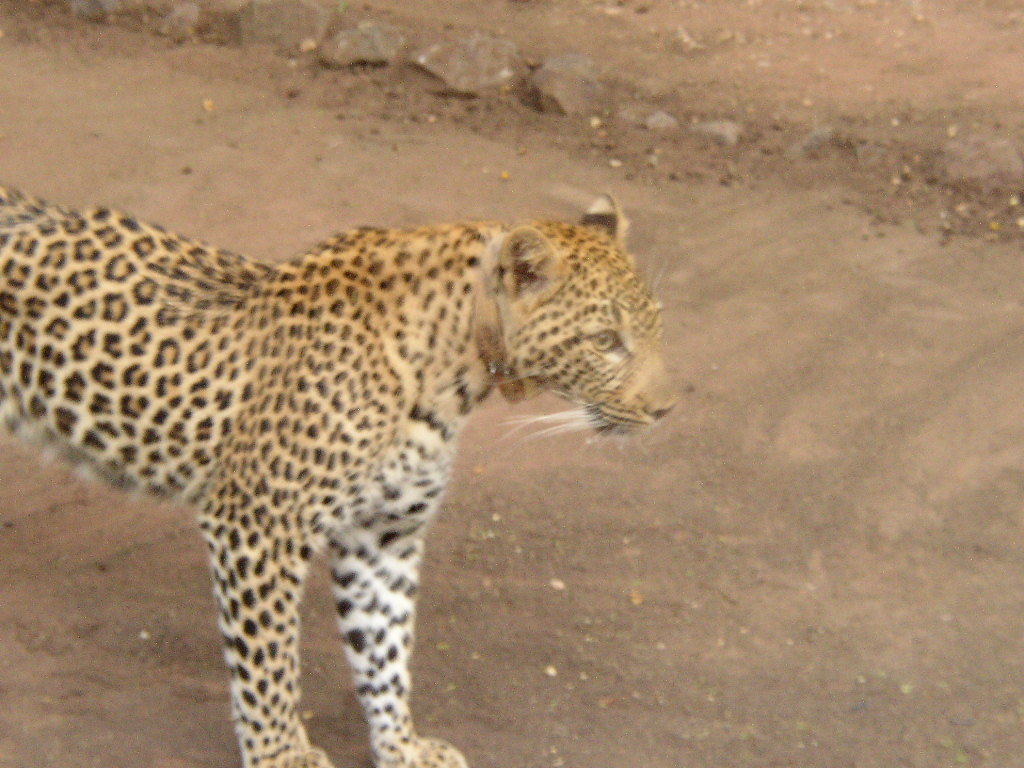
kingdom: Animalia
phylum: Chordata
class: Mammalia
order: Carnivora
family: Felidae
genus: Panthera
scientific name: Panthera pardus
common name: Leopard
